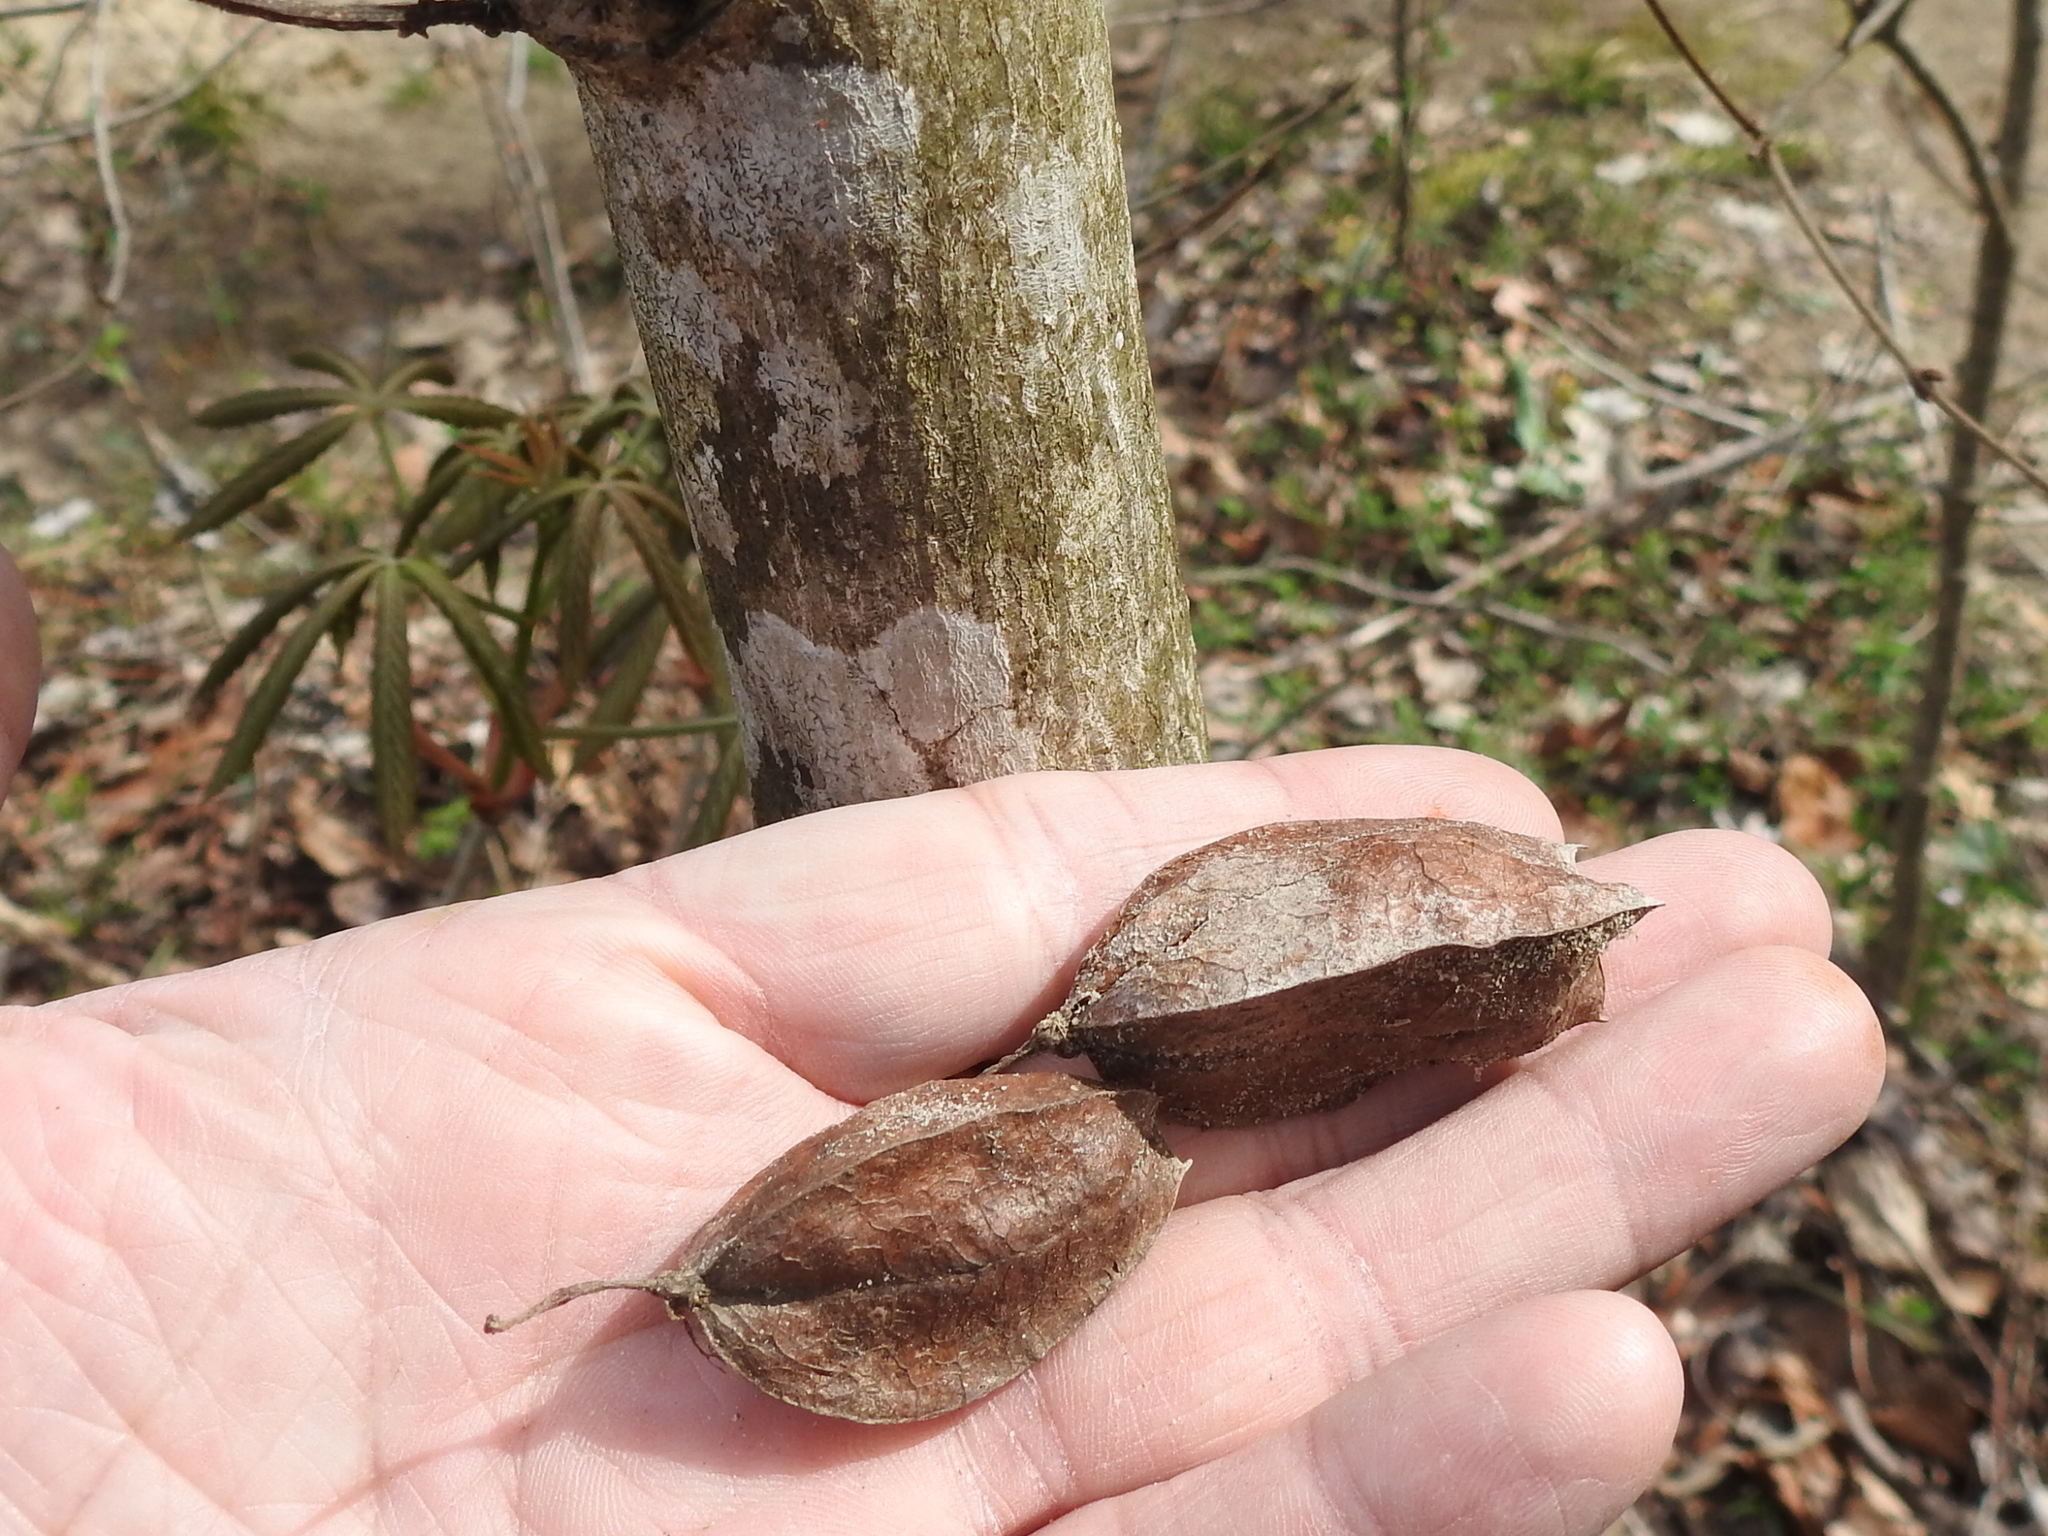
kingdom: Plantae
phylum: Tracheophyta
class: Magnoliopsida
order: Crossosomatales
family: Staphyleaceae
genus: Staphylea
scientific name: Staphylea trifolia
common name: American bladdernut
